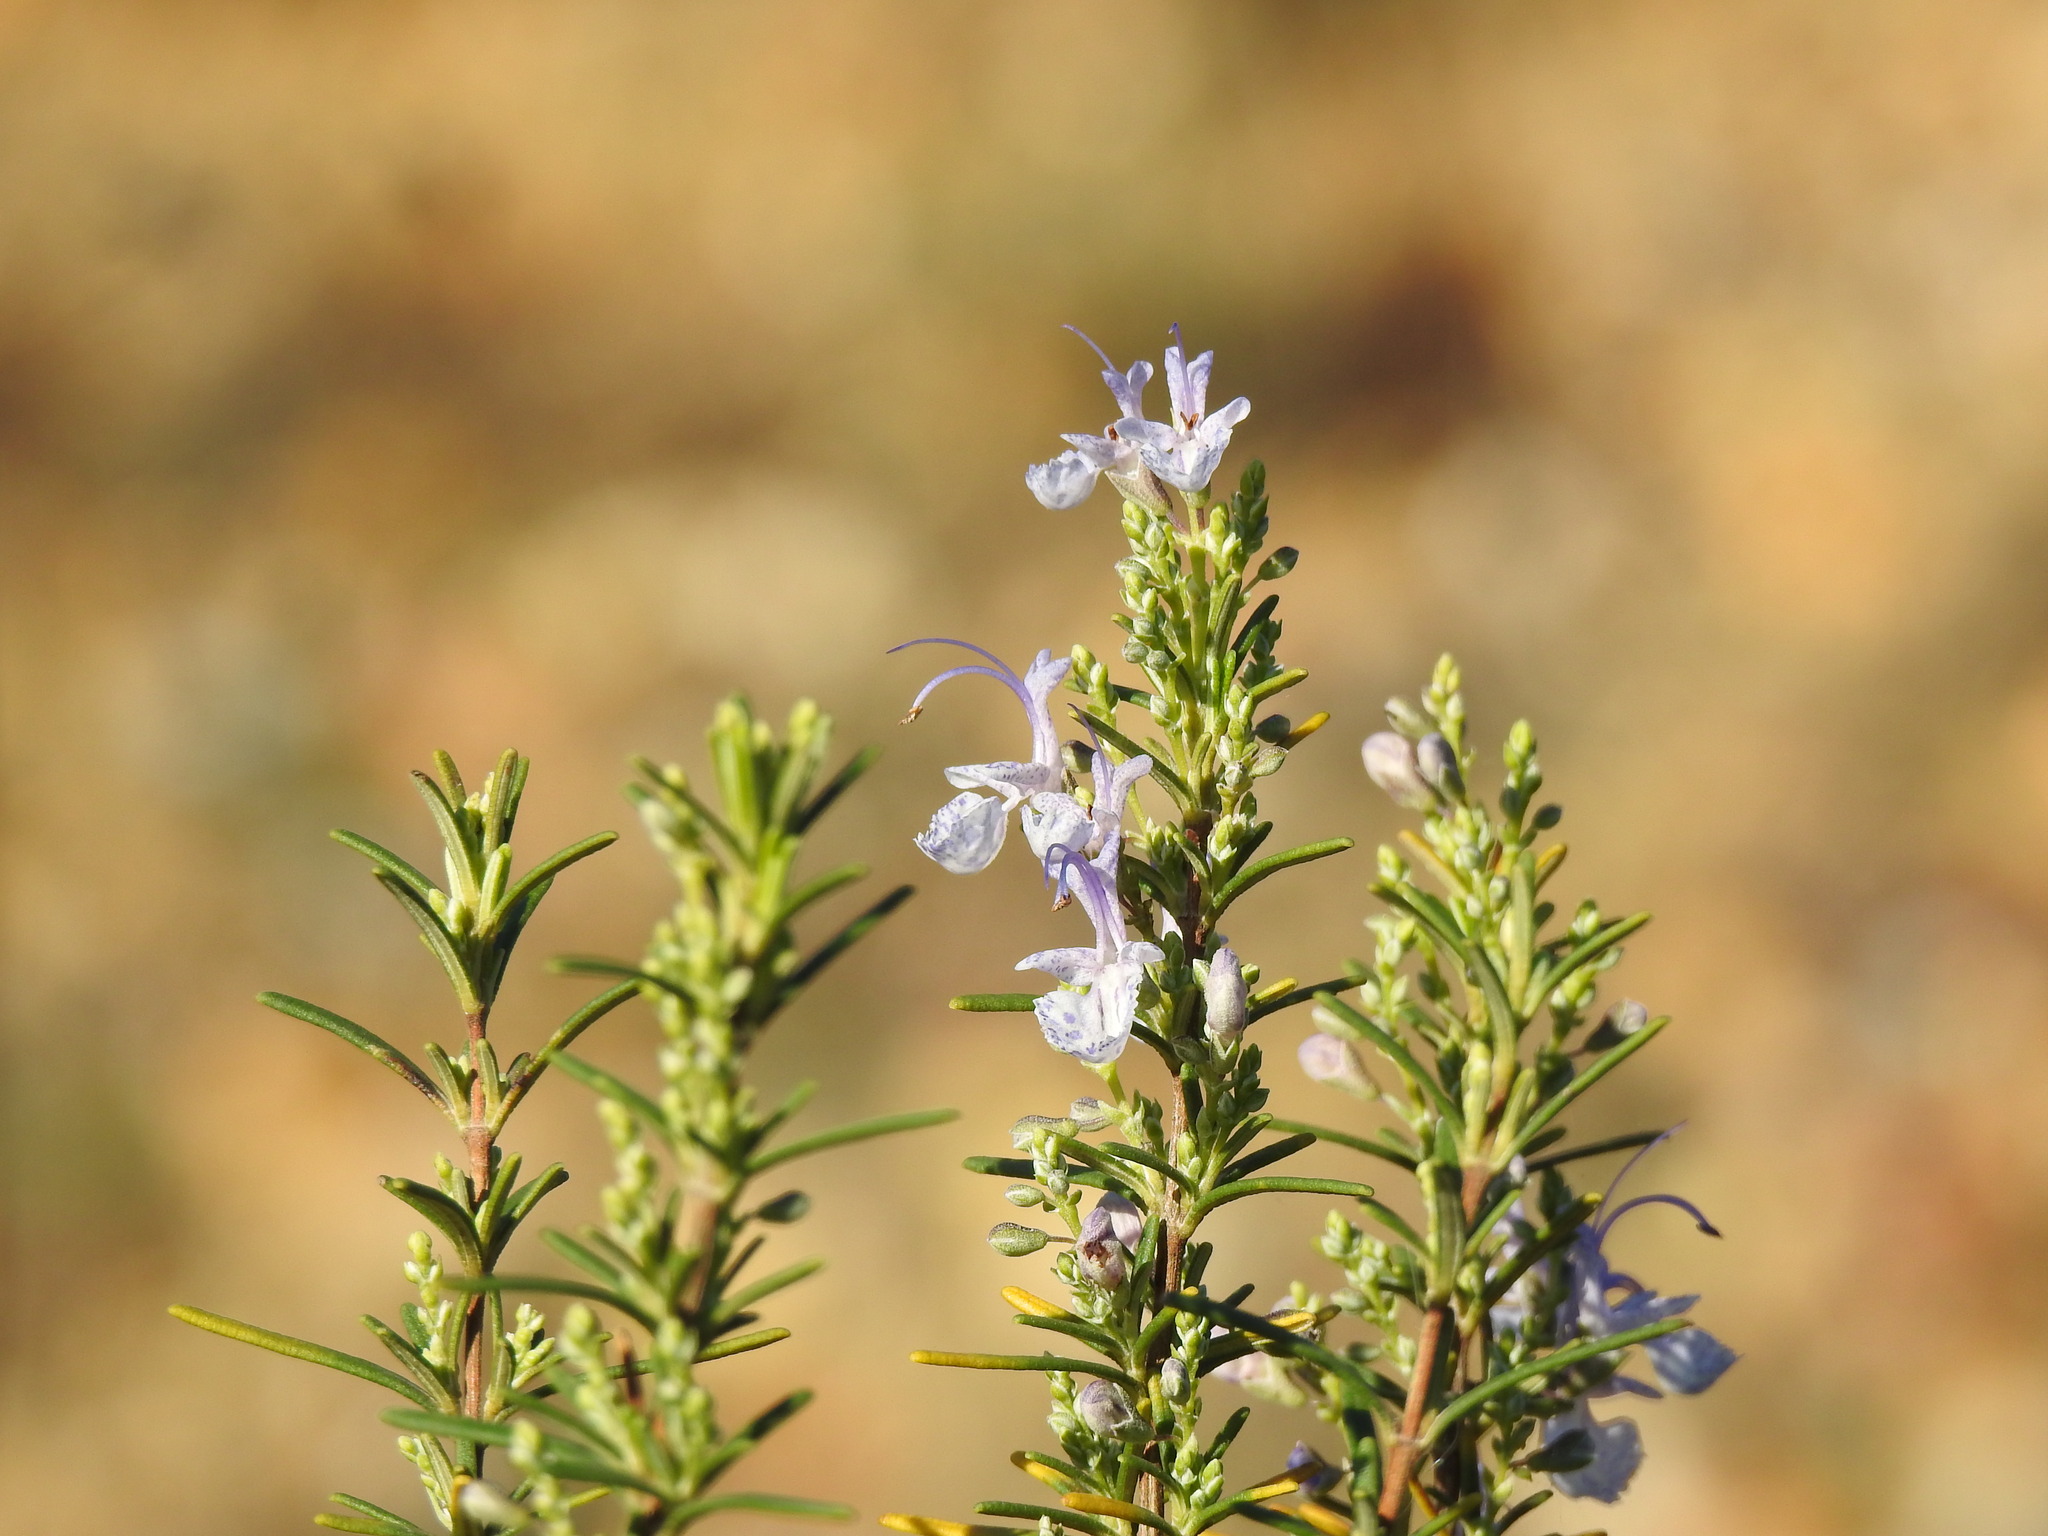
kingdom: Plantae
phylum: Tracheophyta
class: Magnoliopsida
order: Lamiales
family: Lamiaceae
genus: Salvia
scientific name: Salvia rosmarinus
